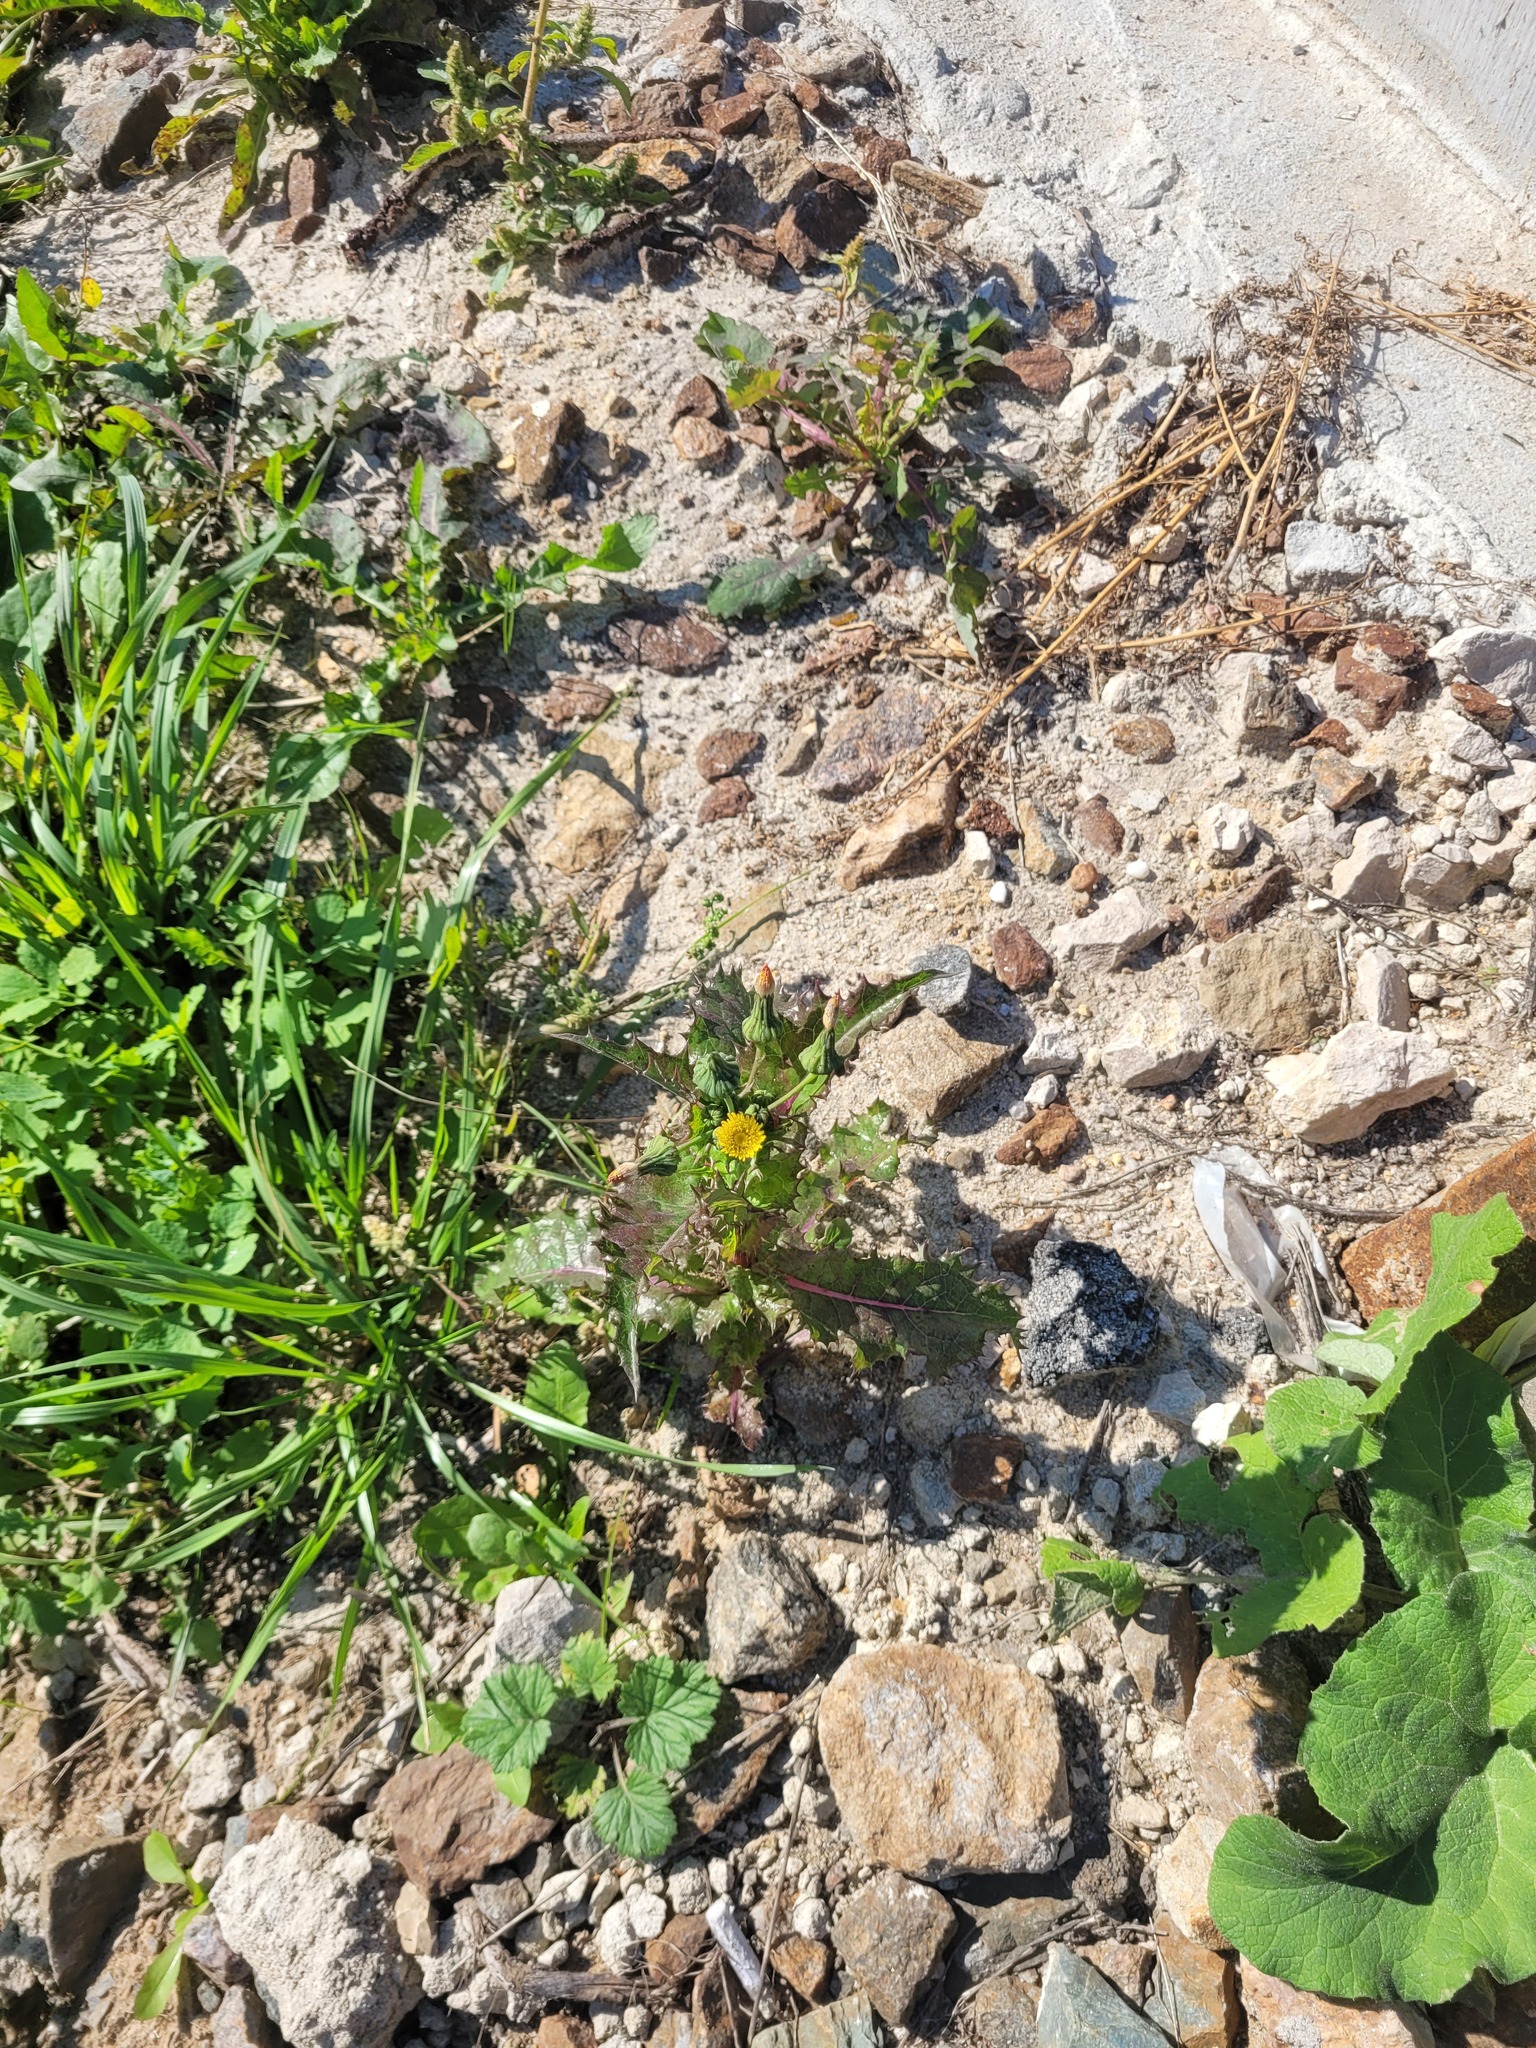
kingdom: Plantae
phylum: Tracheophyta
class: Magnoliopsida
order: Asterales
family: Asteraceae
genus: Sonchus
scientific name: Sonchus asper
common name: Prickly sow-thistle
